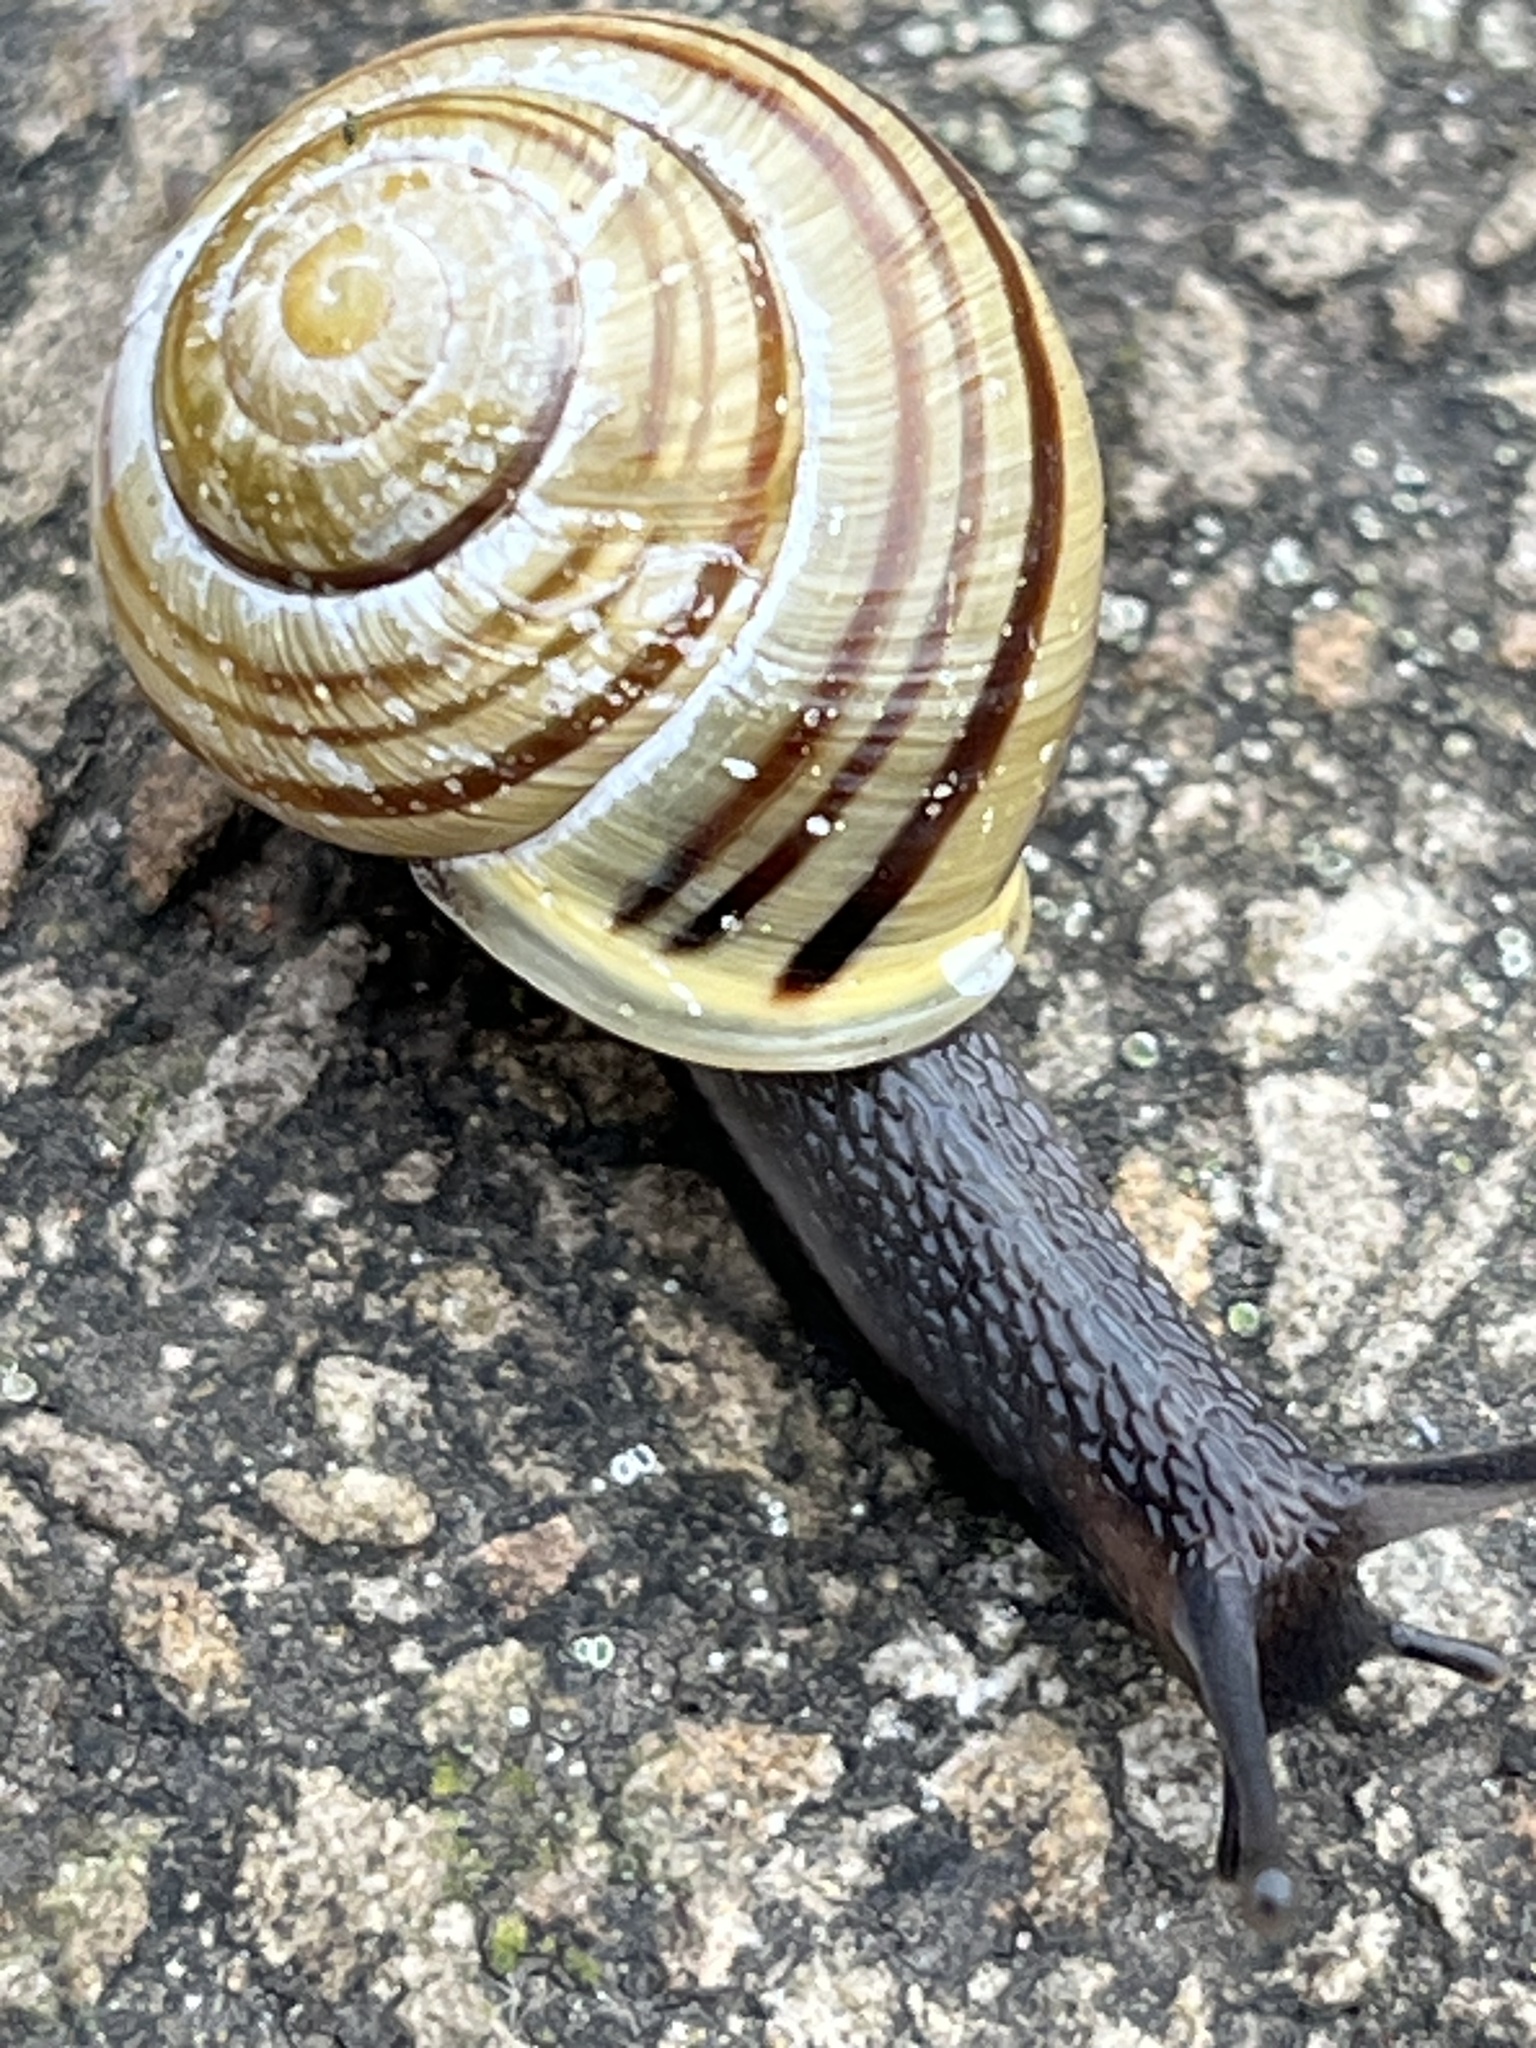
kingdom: Animalia
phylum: Mollusca
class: Gastropoda
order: Stylommatophora
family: Helicidae
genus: Cepaea
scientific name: Cepaea hortensis
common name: White-lip gardensnail
